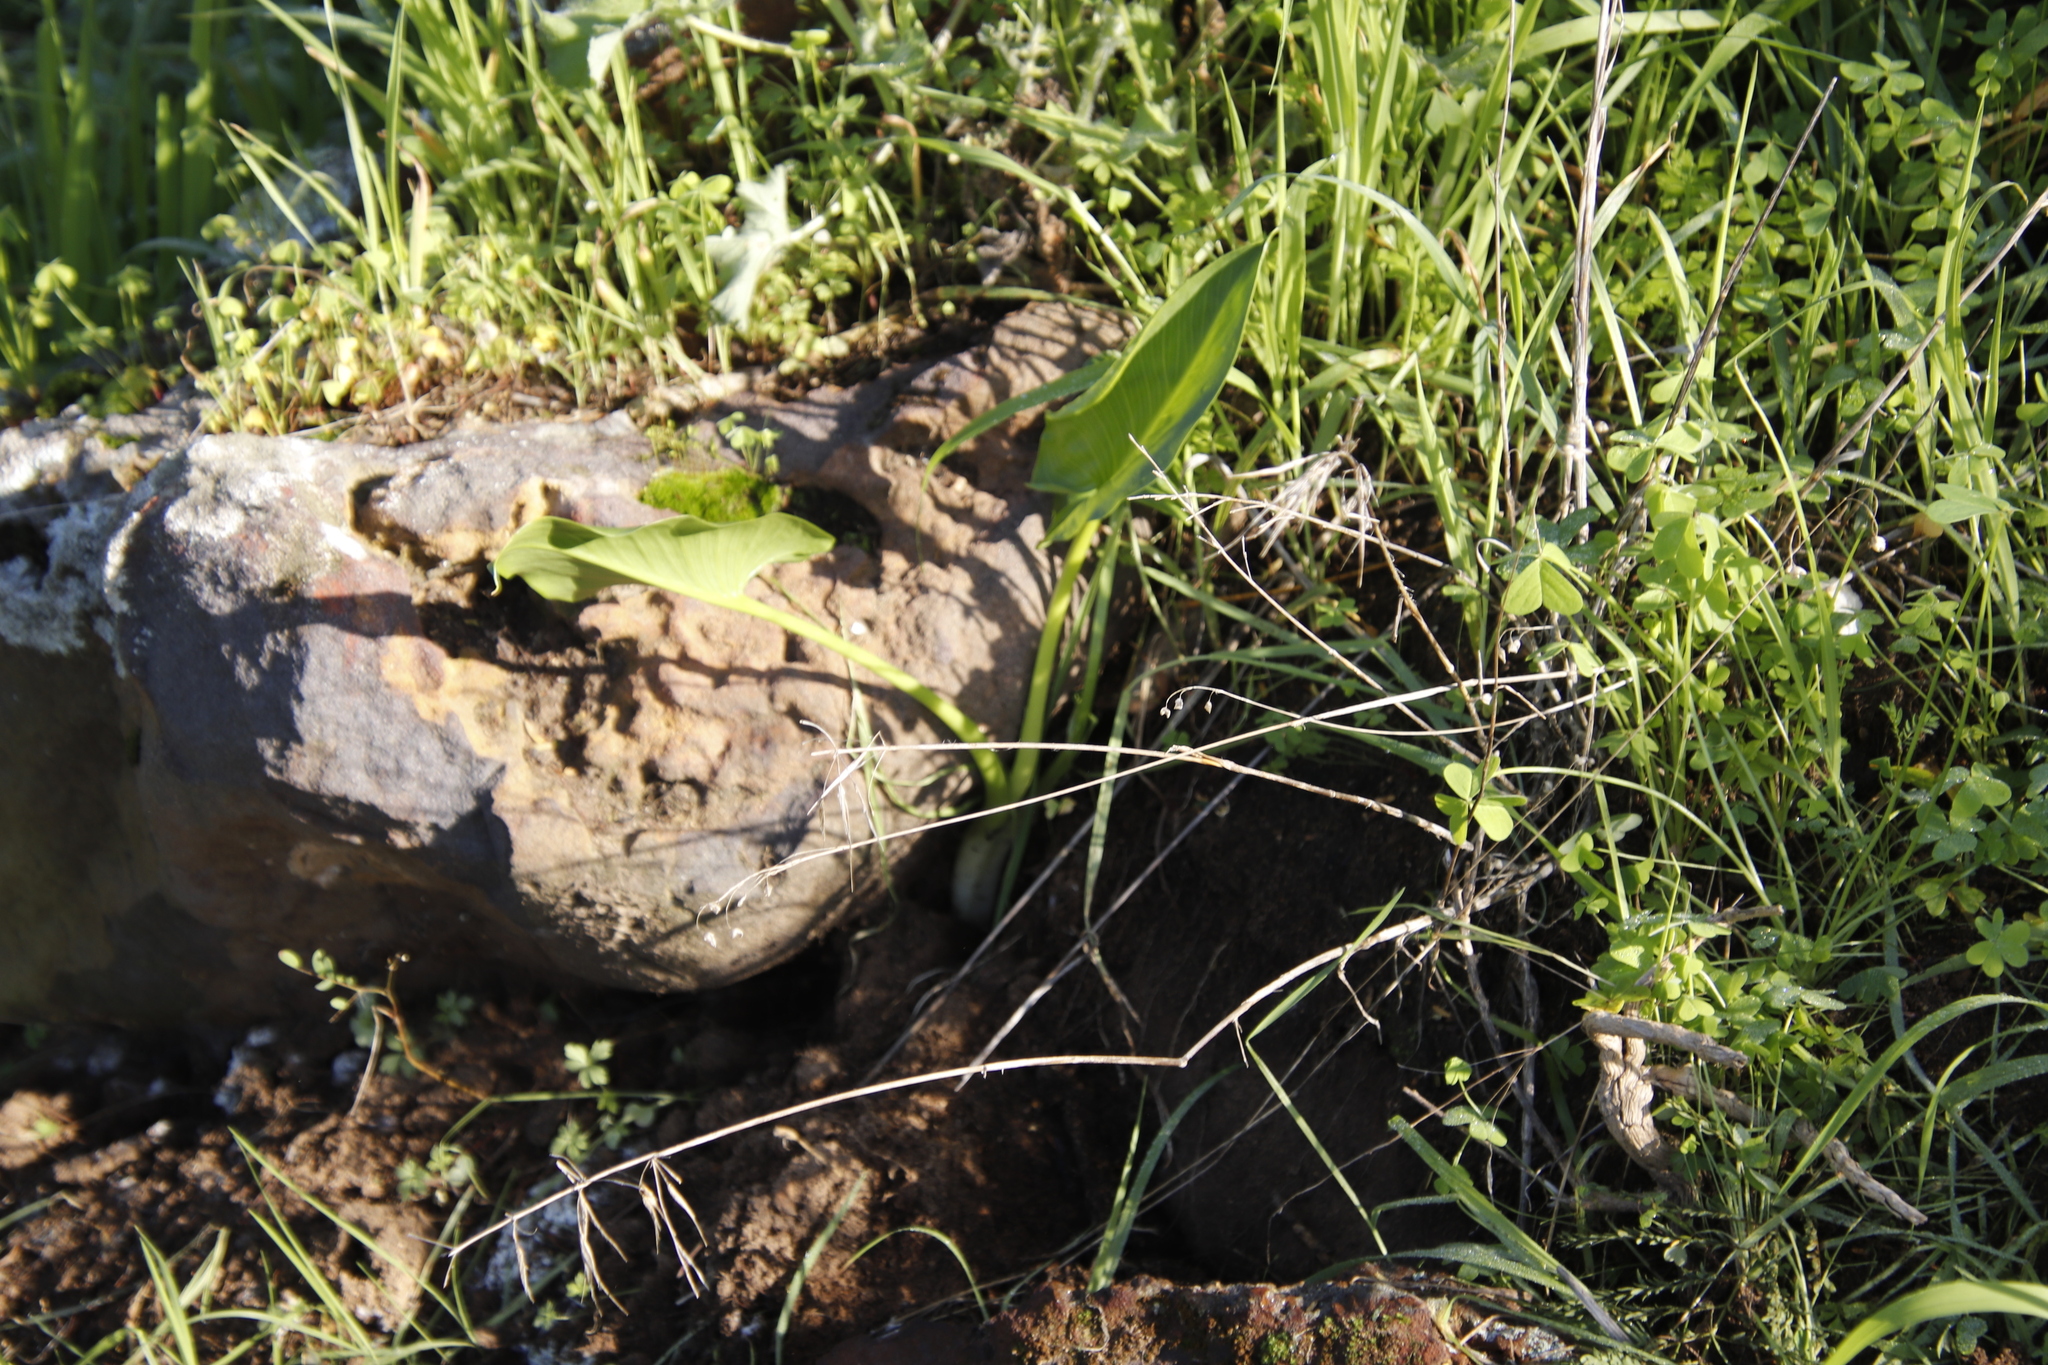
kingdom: Plantae
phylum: Tracheophyta
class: Liliopsida
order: Alismatales
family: Araceae
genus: Zantedeschia
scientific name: Zantedeschia aethiopica
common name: Altar-lily
